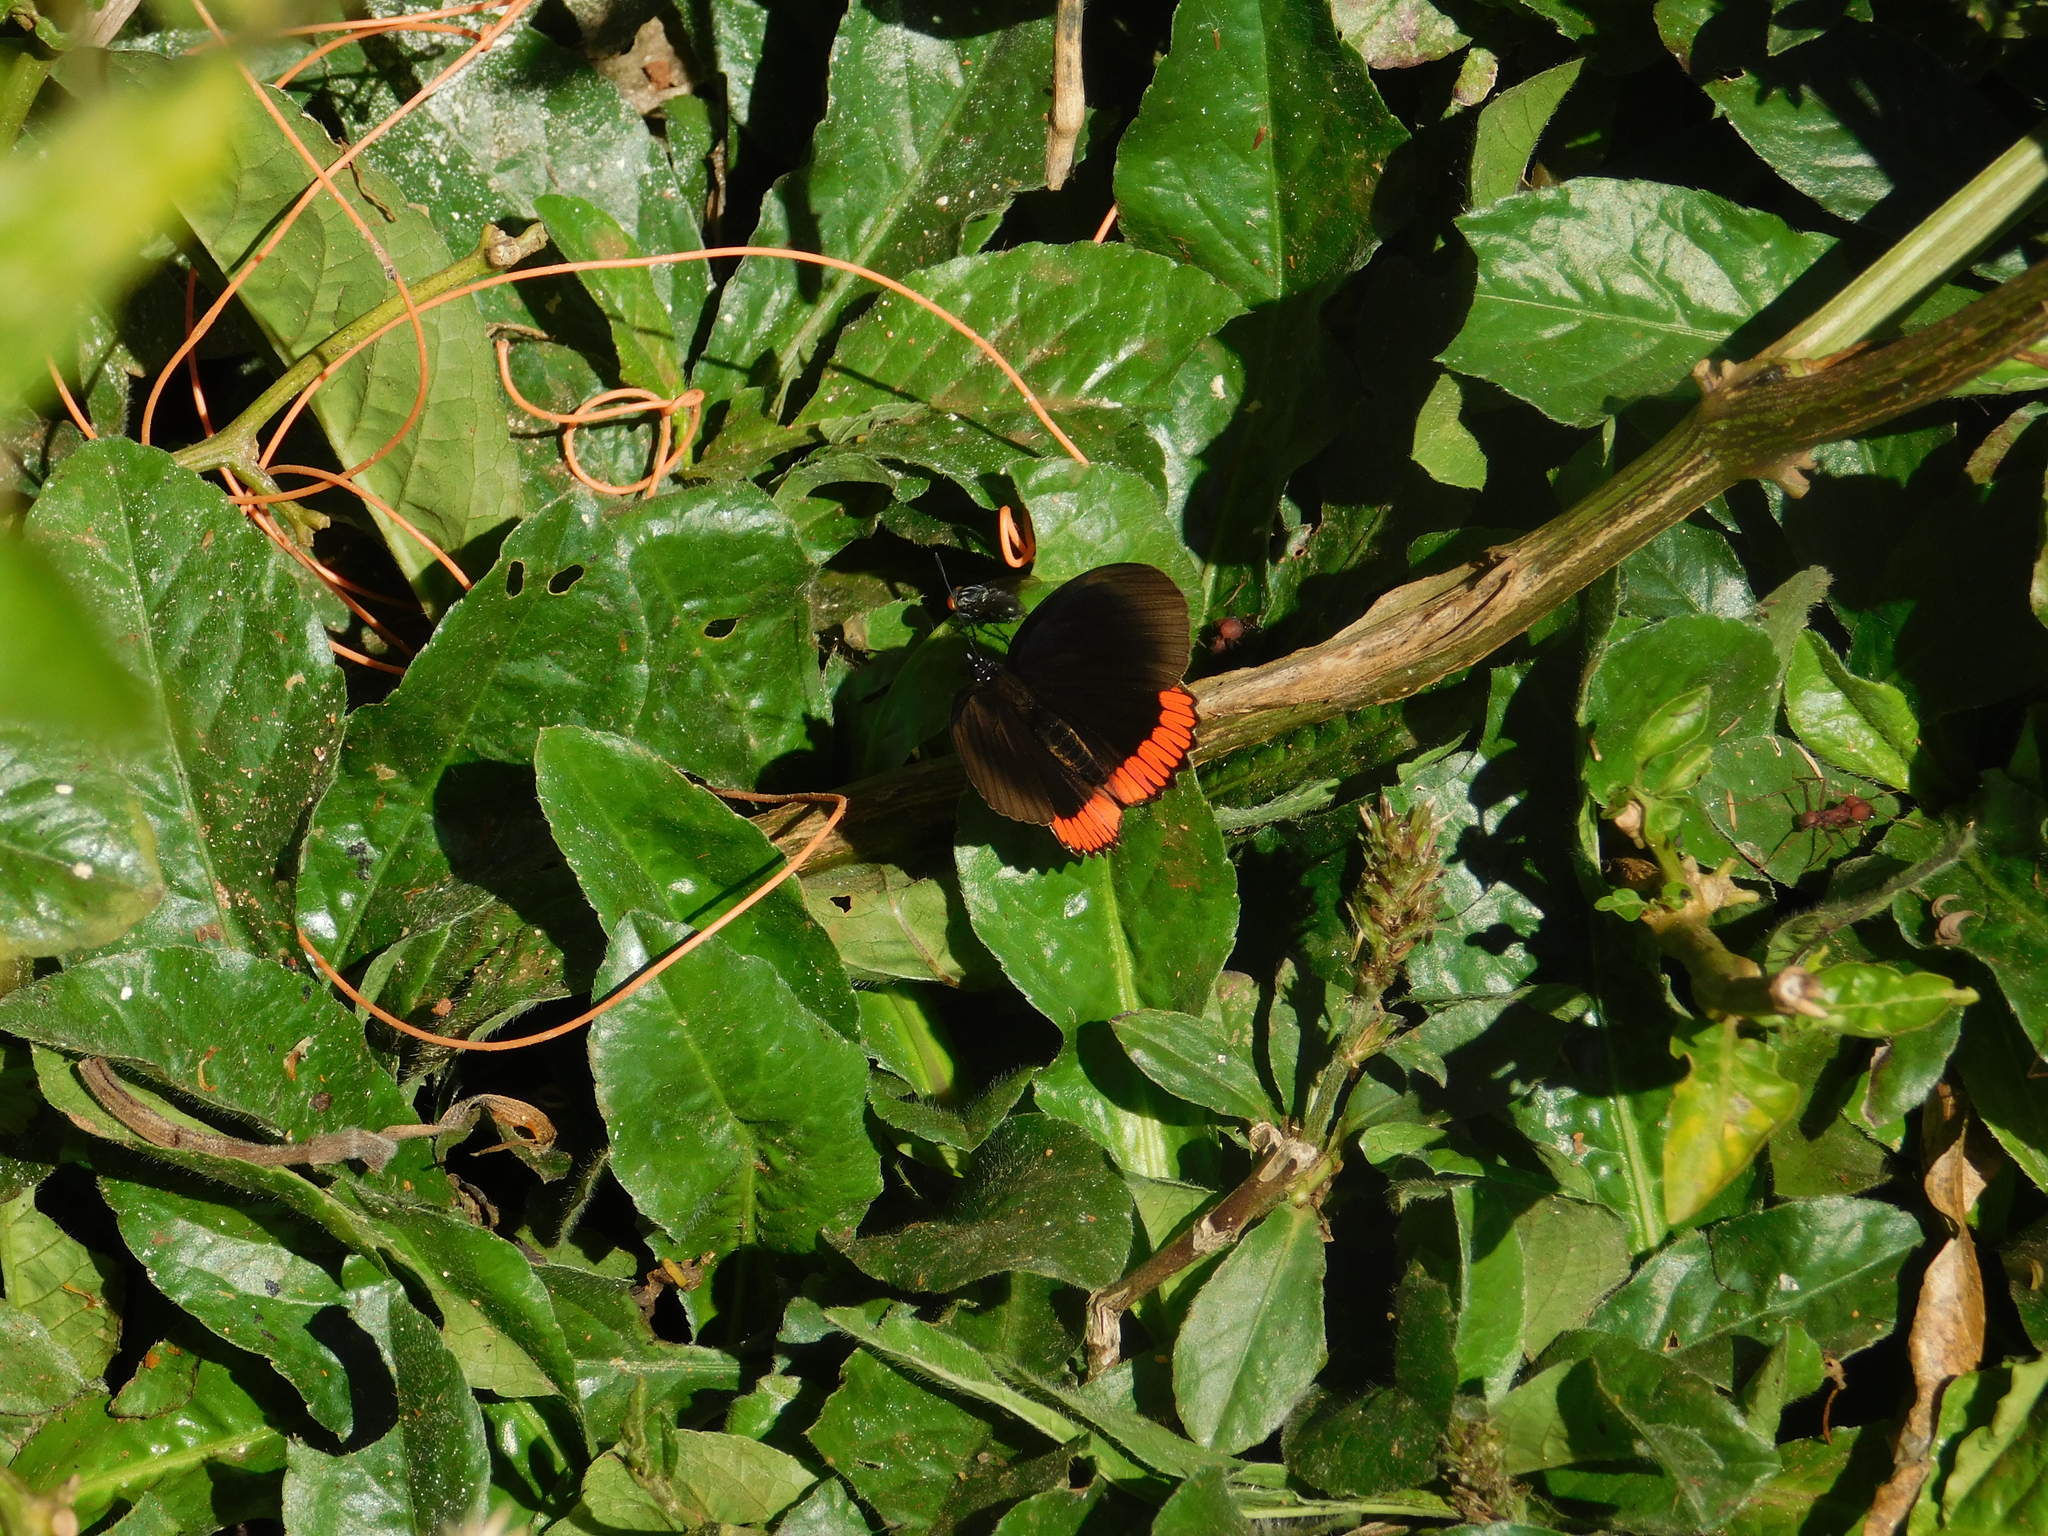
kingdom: Animalia
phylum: Arthropoda
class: Insecta
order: Lepidoptera
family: Sesiidae
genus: Sesia
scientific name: Sesia Biblis hyperia
